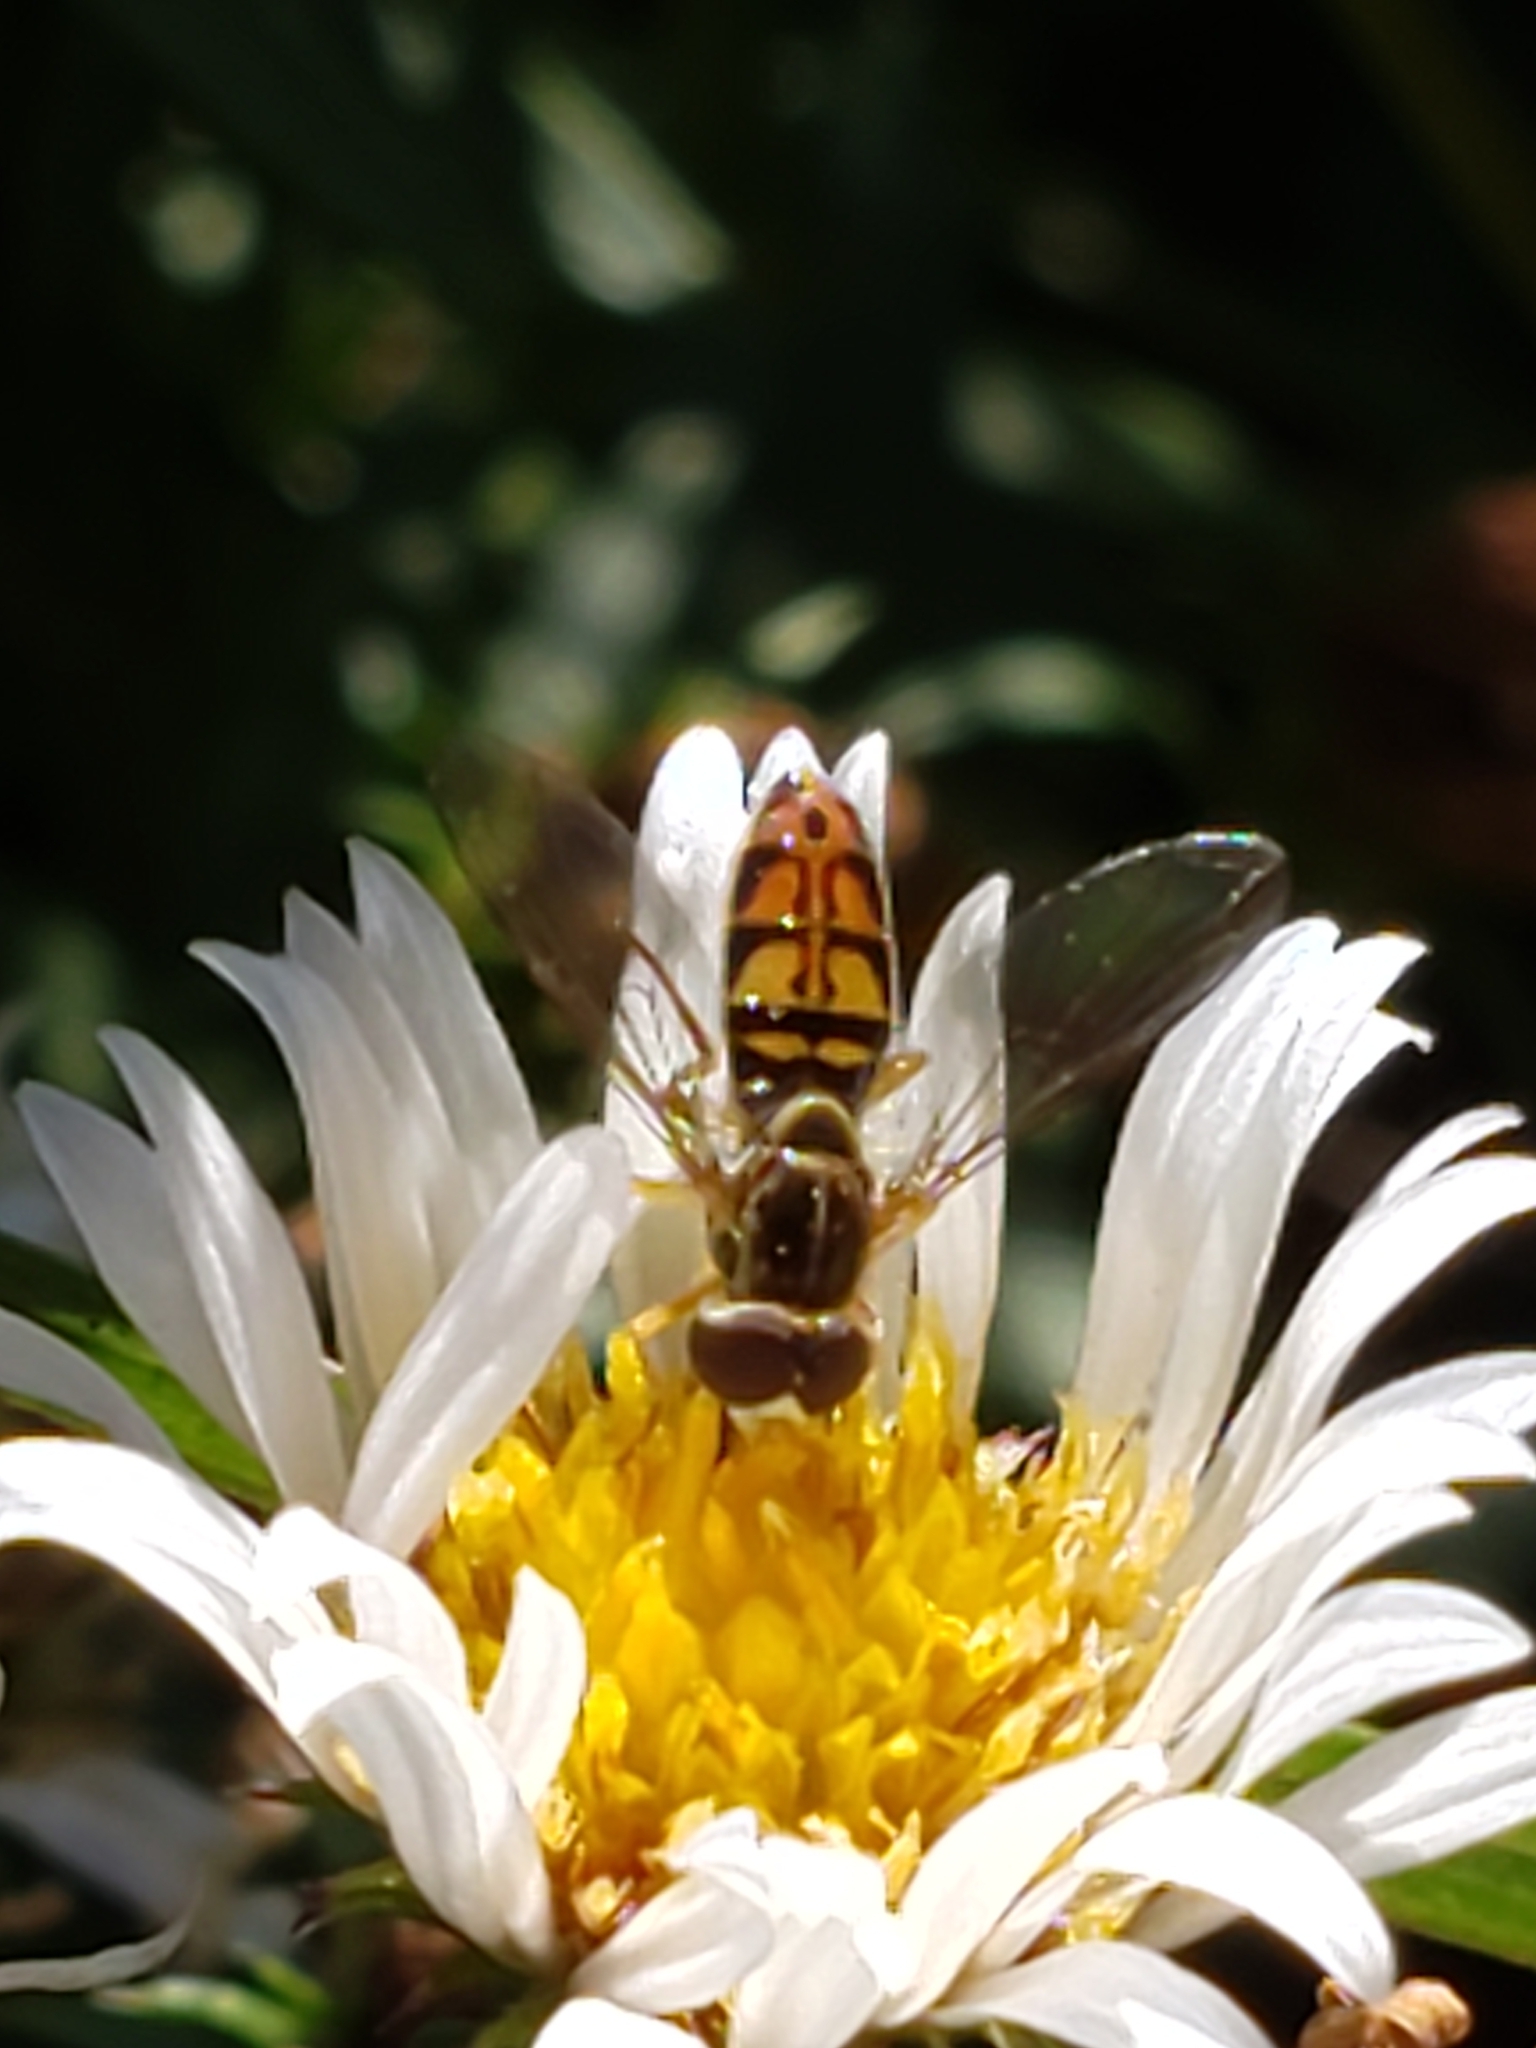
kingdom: Animalia
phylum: Arthropoda
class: Insecta
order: Diptera
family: Syrphidae
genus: Toxomerus
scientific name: Toxomerus marginatus
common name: Syrphid fly
